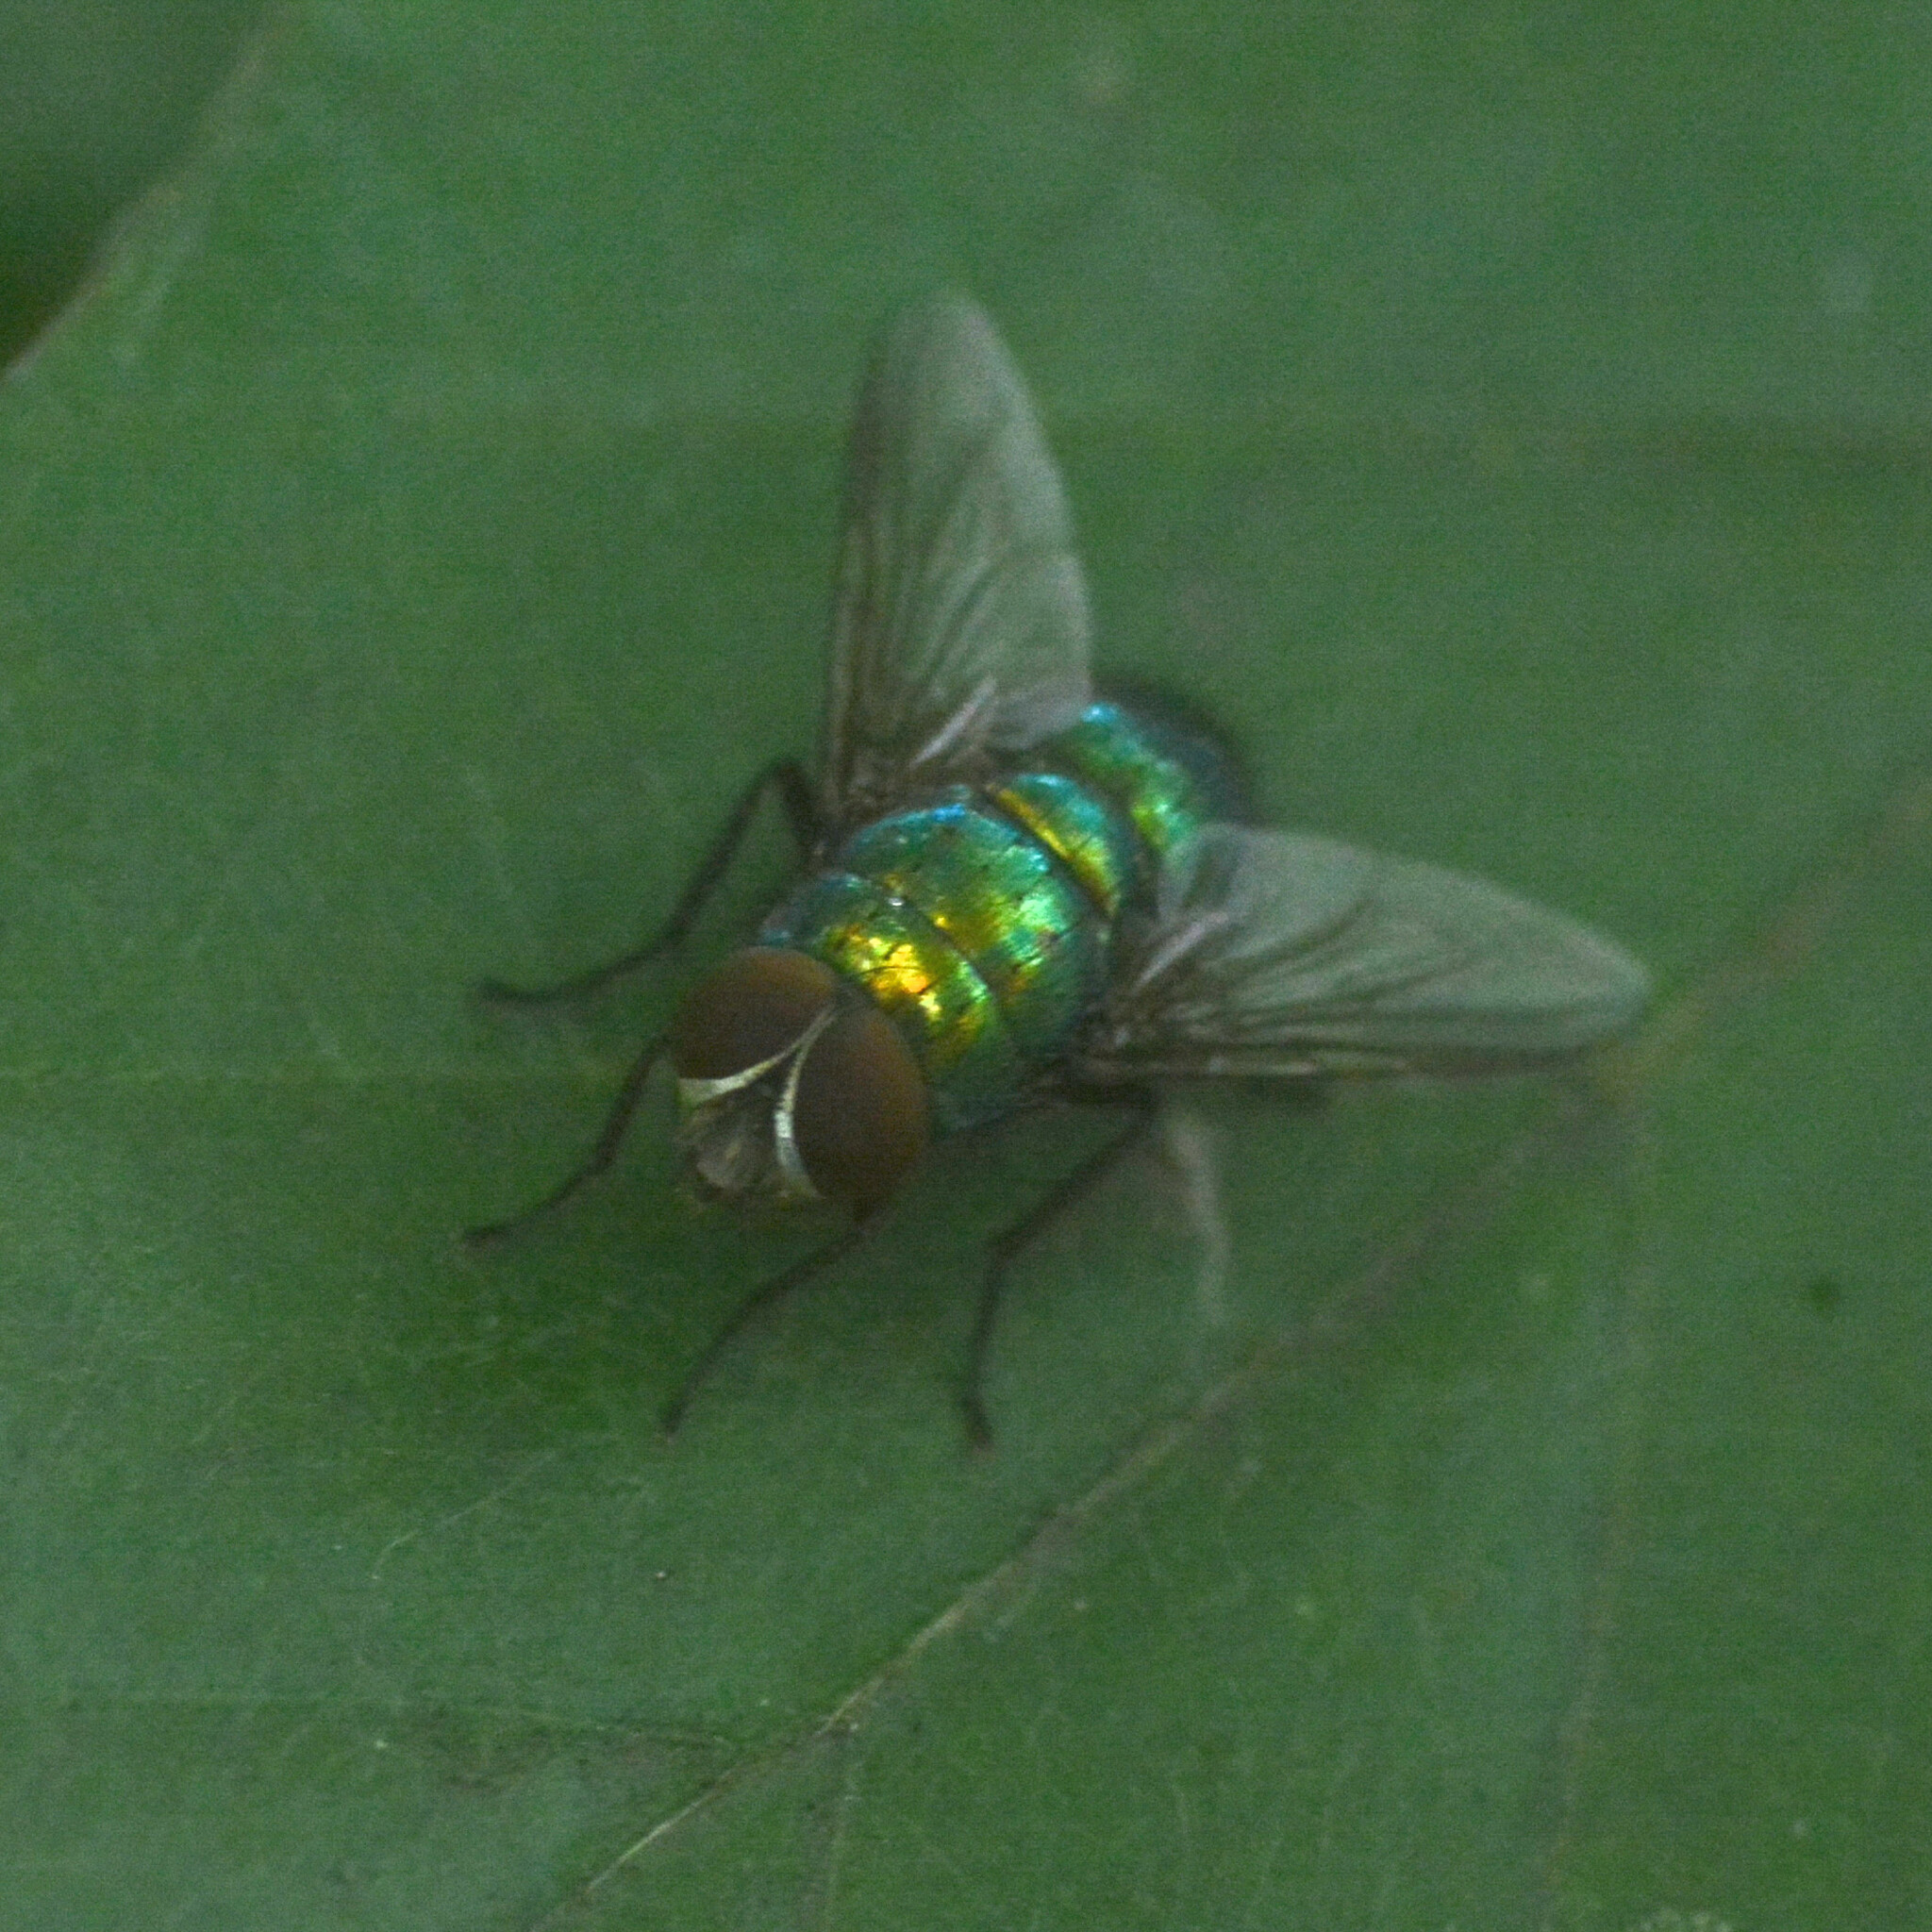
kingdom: Animalia
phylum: Arthropoda
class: Insecta
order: Diptera
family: Calliphoridae
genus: Lucilia
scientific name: Lucilia
